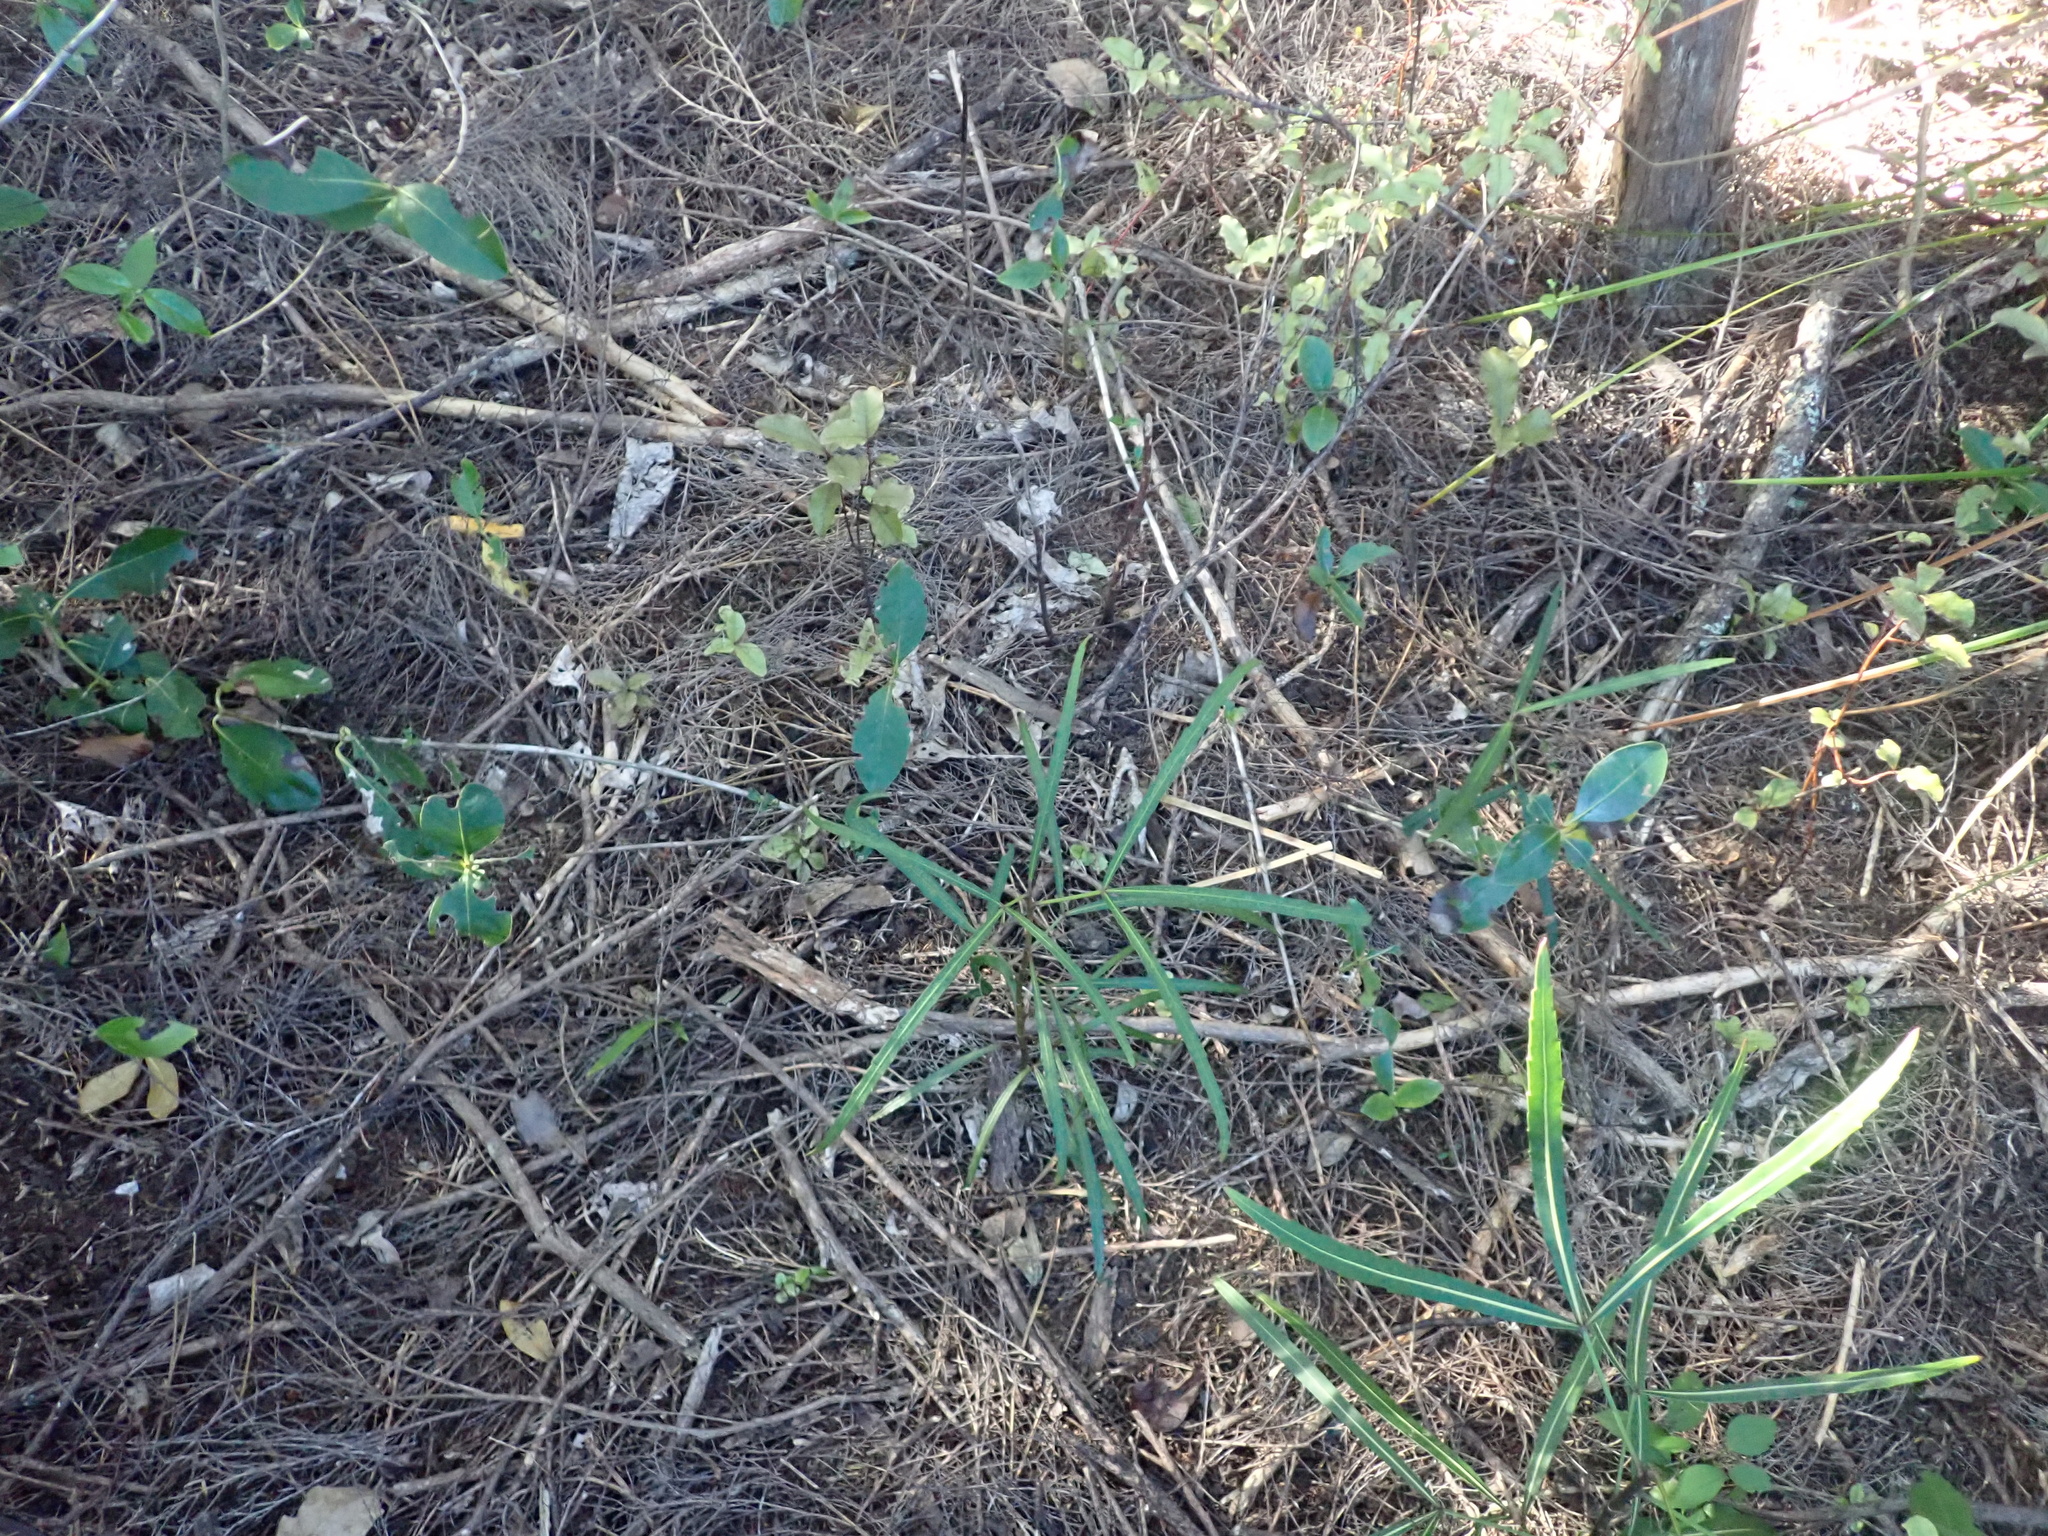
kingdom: Plantae
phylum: Tracheophyta
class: Magnoliopsida
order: Apiales
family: Araliaceae
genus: Pseudopanax
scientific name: Pseudopanax
